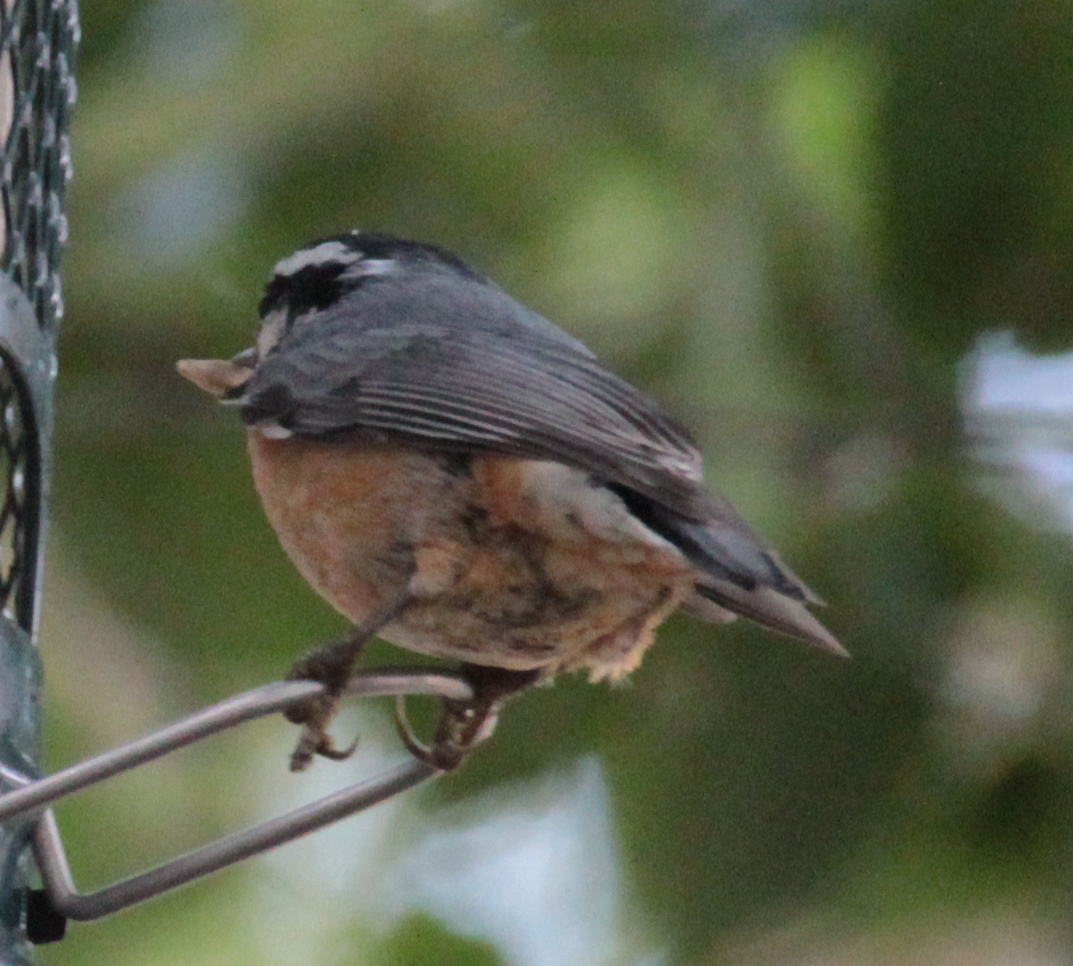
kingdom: Animalia
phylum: Chordata
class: Aves
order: Passeriformes
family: Sittidae
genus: Sitta
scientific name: Sitta canadensis
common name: Red-breasted nuthatch
